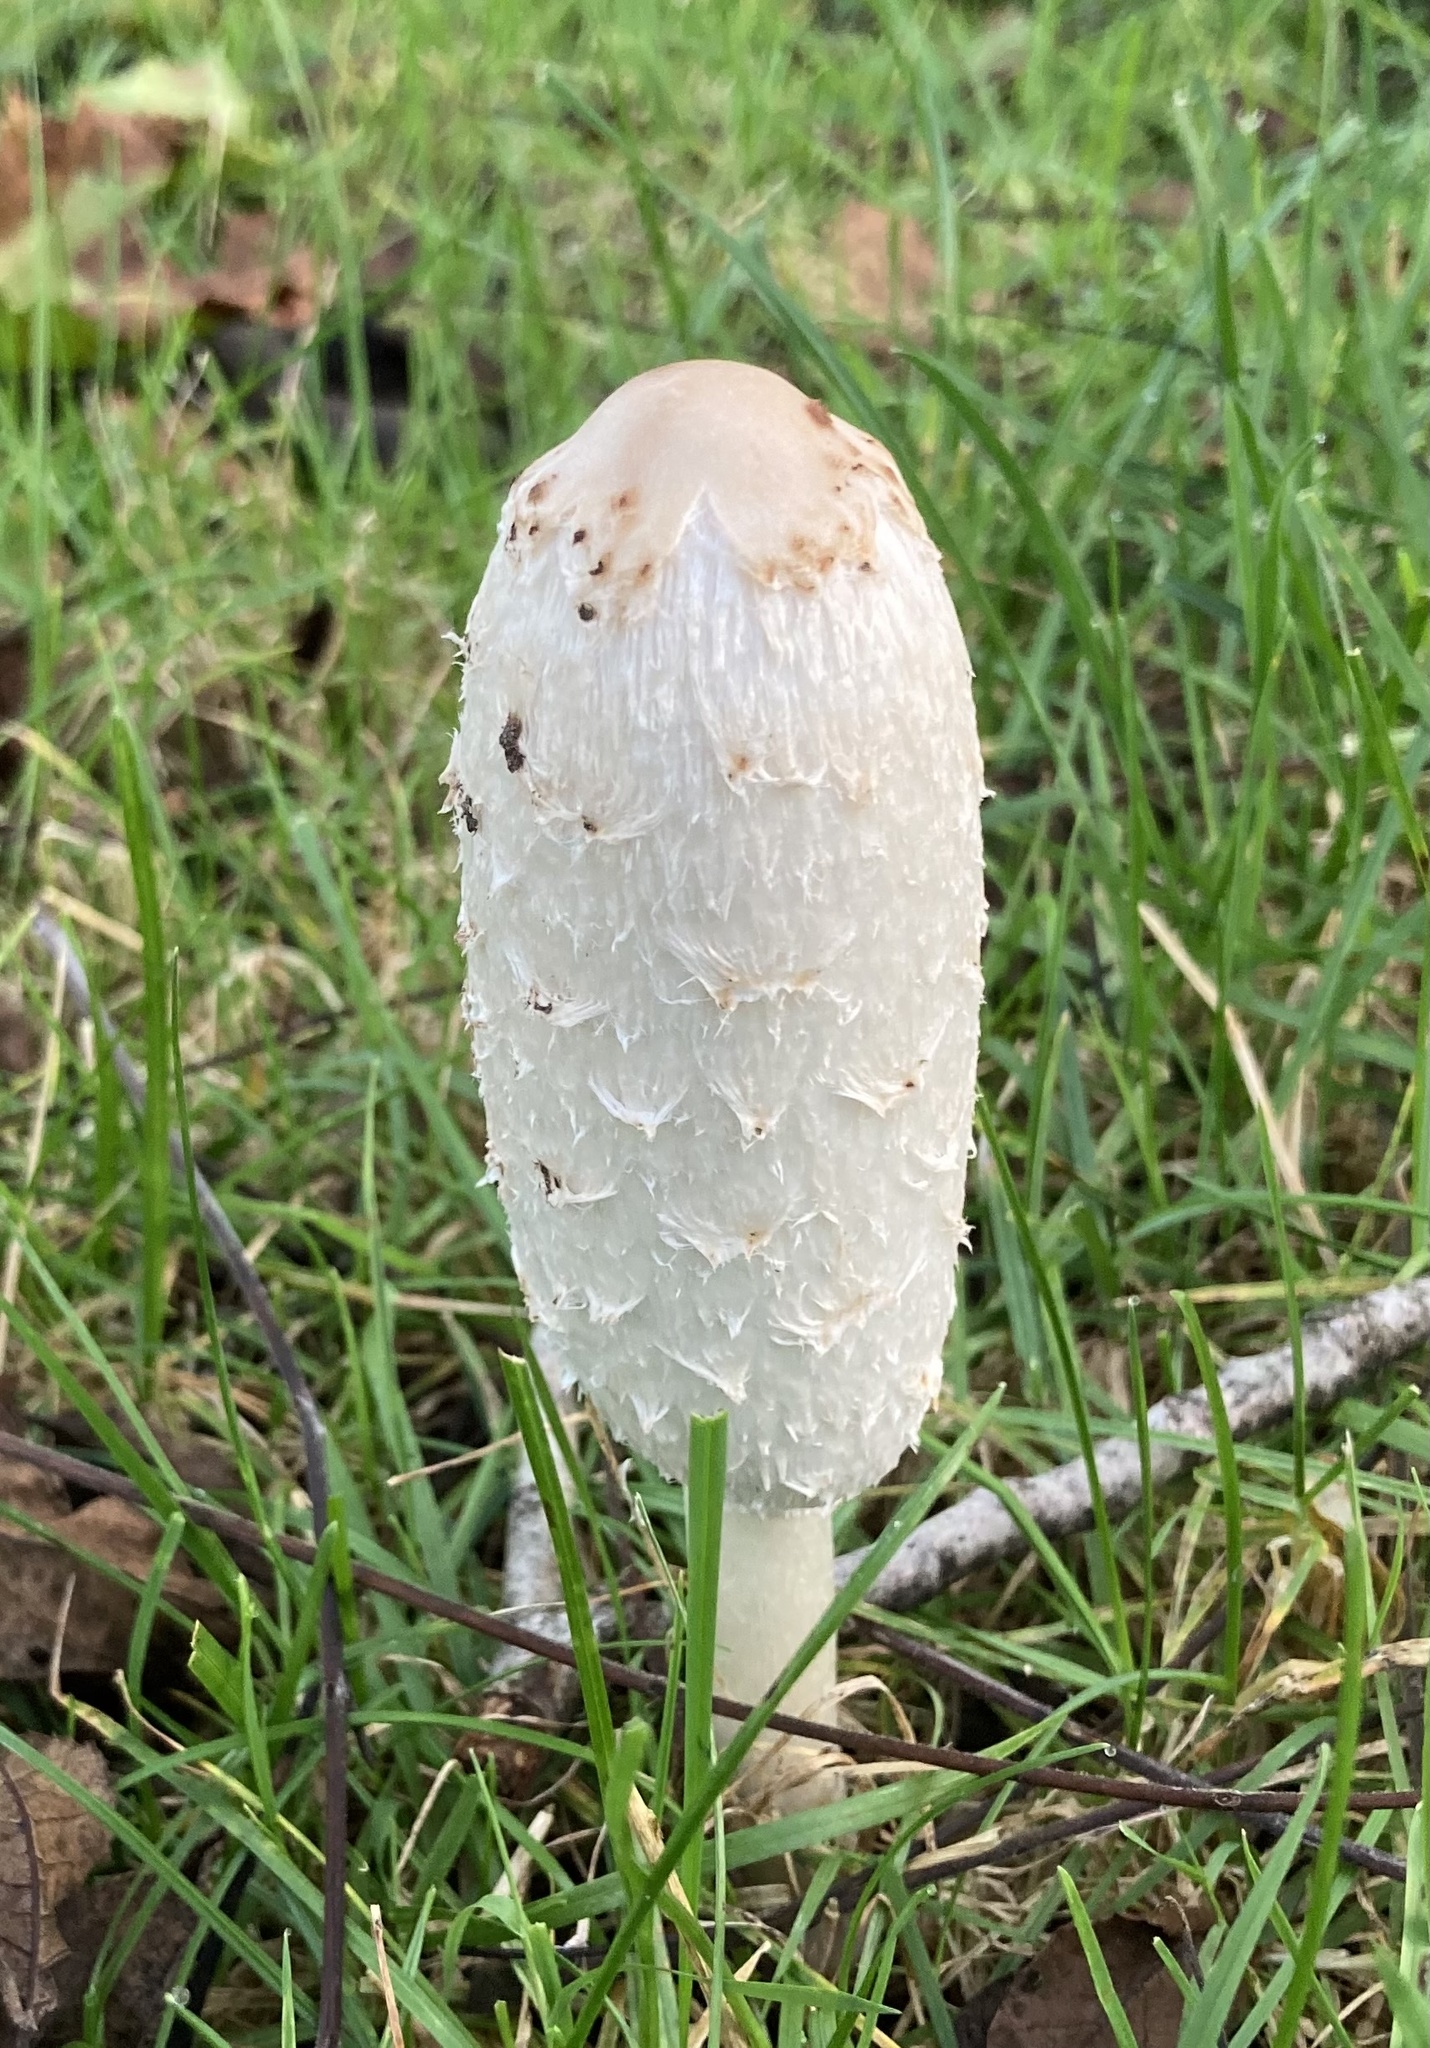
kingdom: Fungi
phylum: Basidiomycota
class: Agaricomycetes
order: Agaricales
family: Agaricaceae
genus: Coprinus
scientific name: Coprinus comatus
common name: Lawyer's wig
